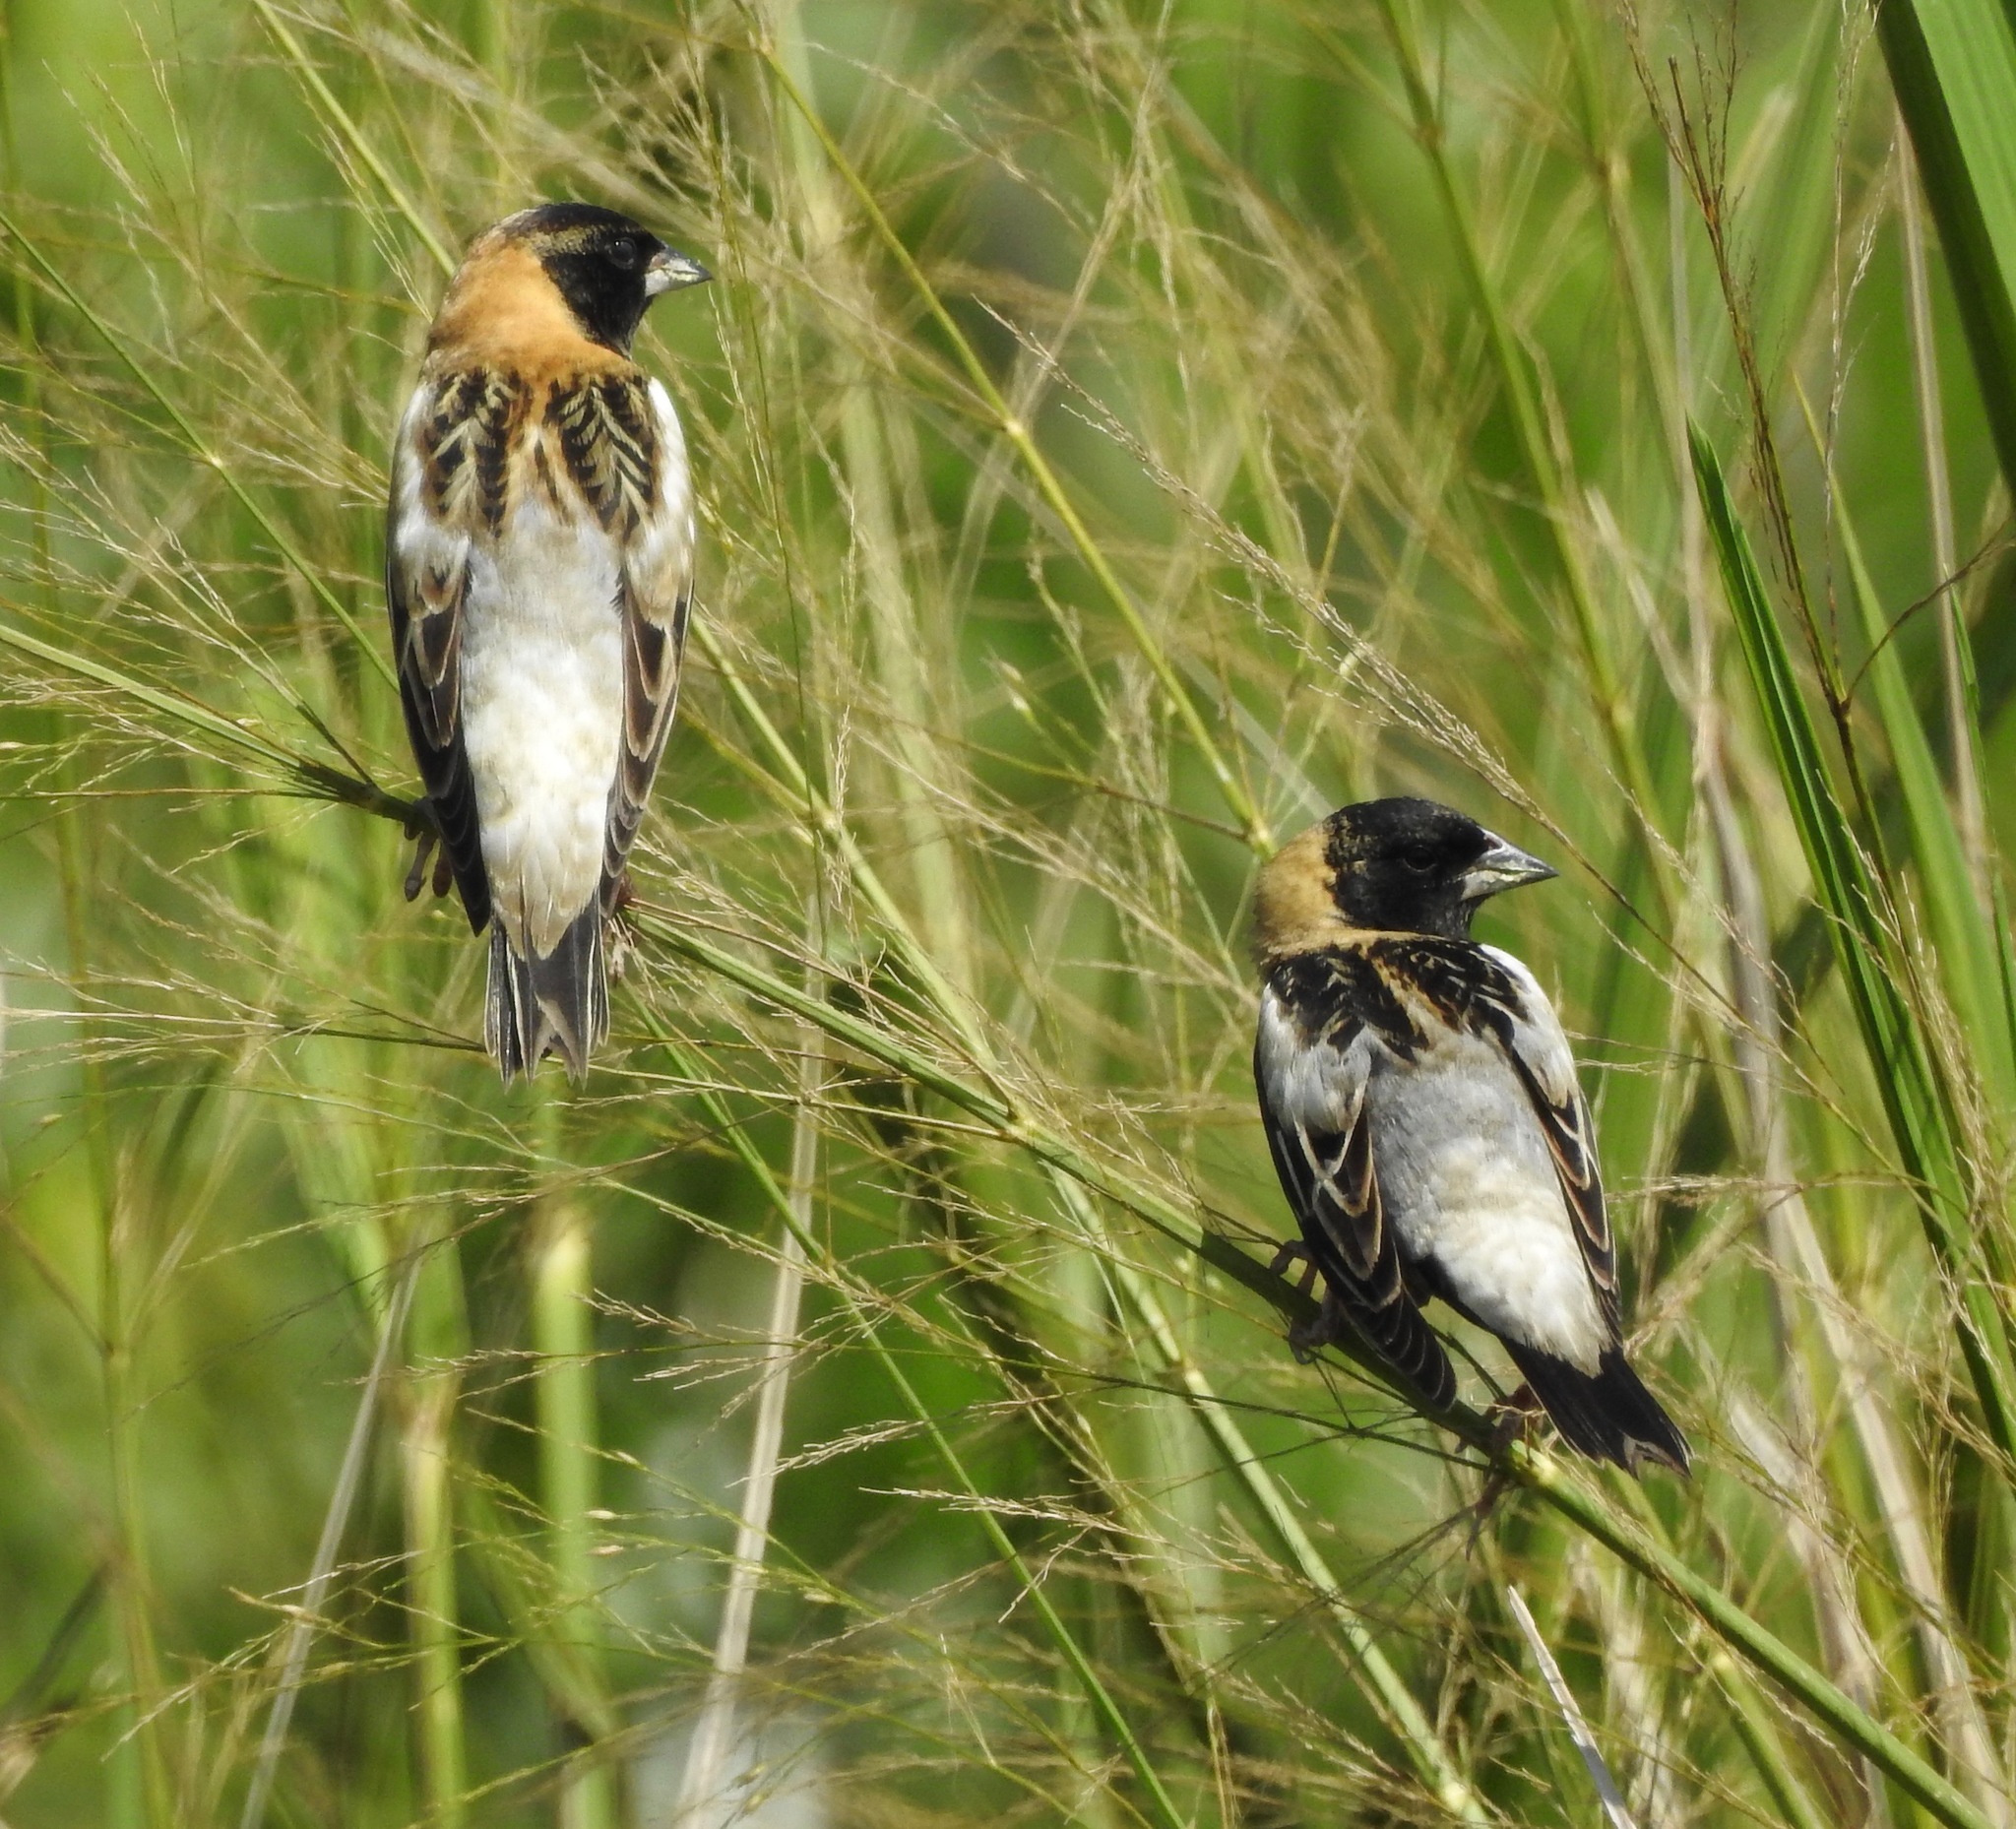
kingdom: Animalia
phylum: Chordata
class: Aves
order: Passeriformes
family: Icteridae
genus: Dolichonyx
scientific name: Dolichonyx oryzivorus
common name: Bobolink
